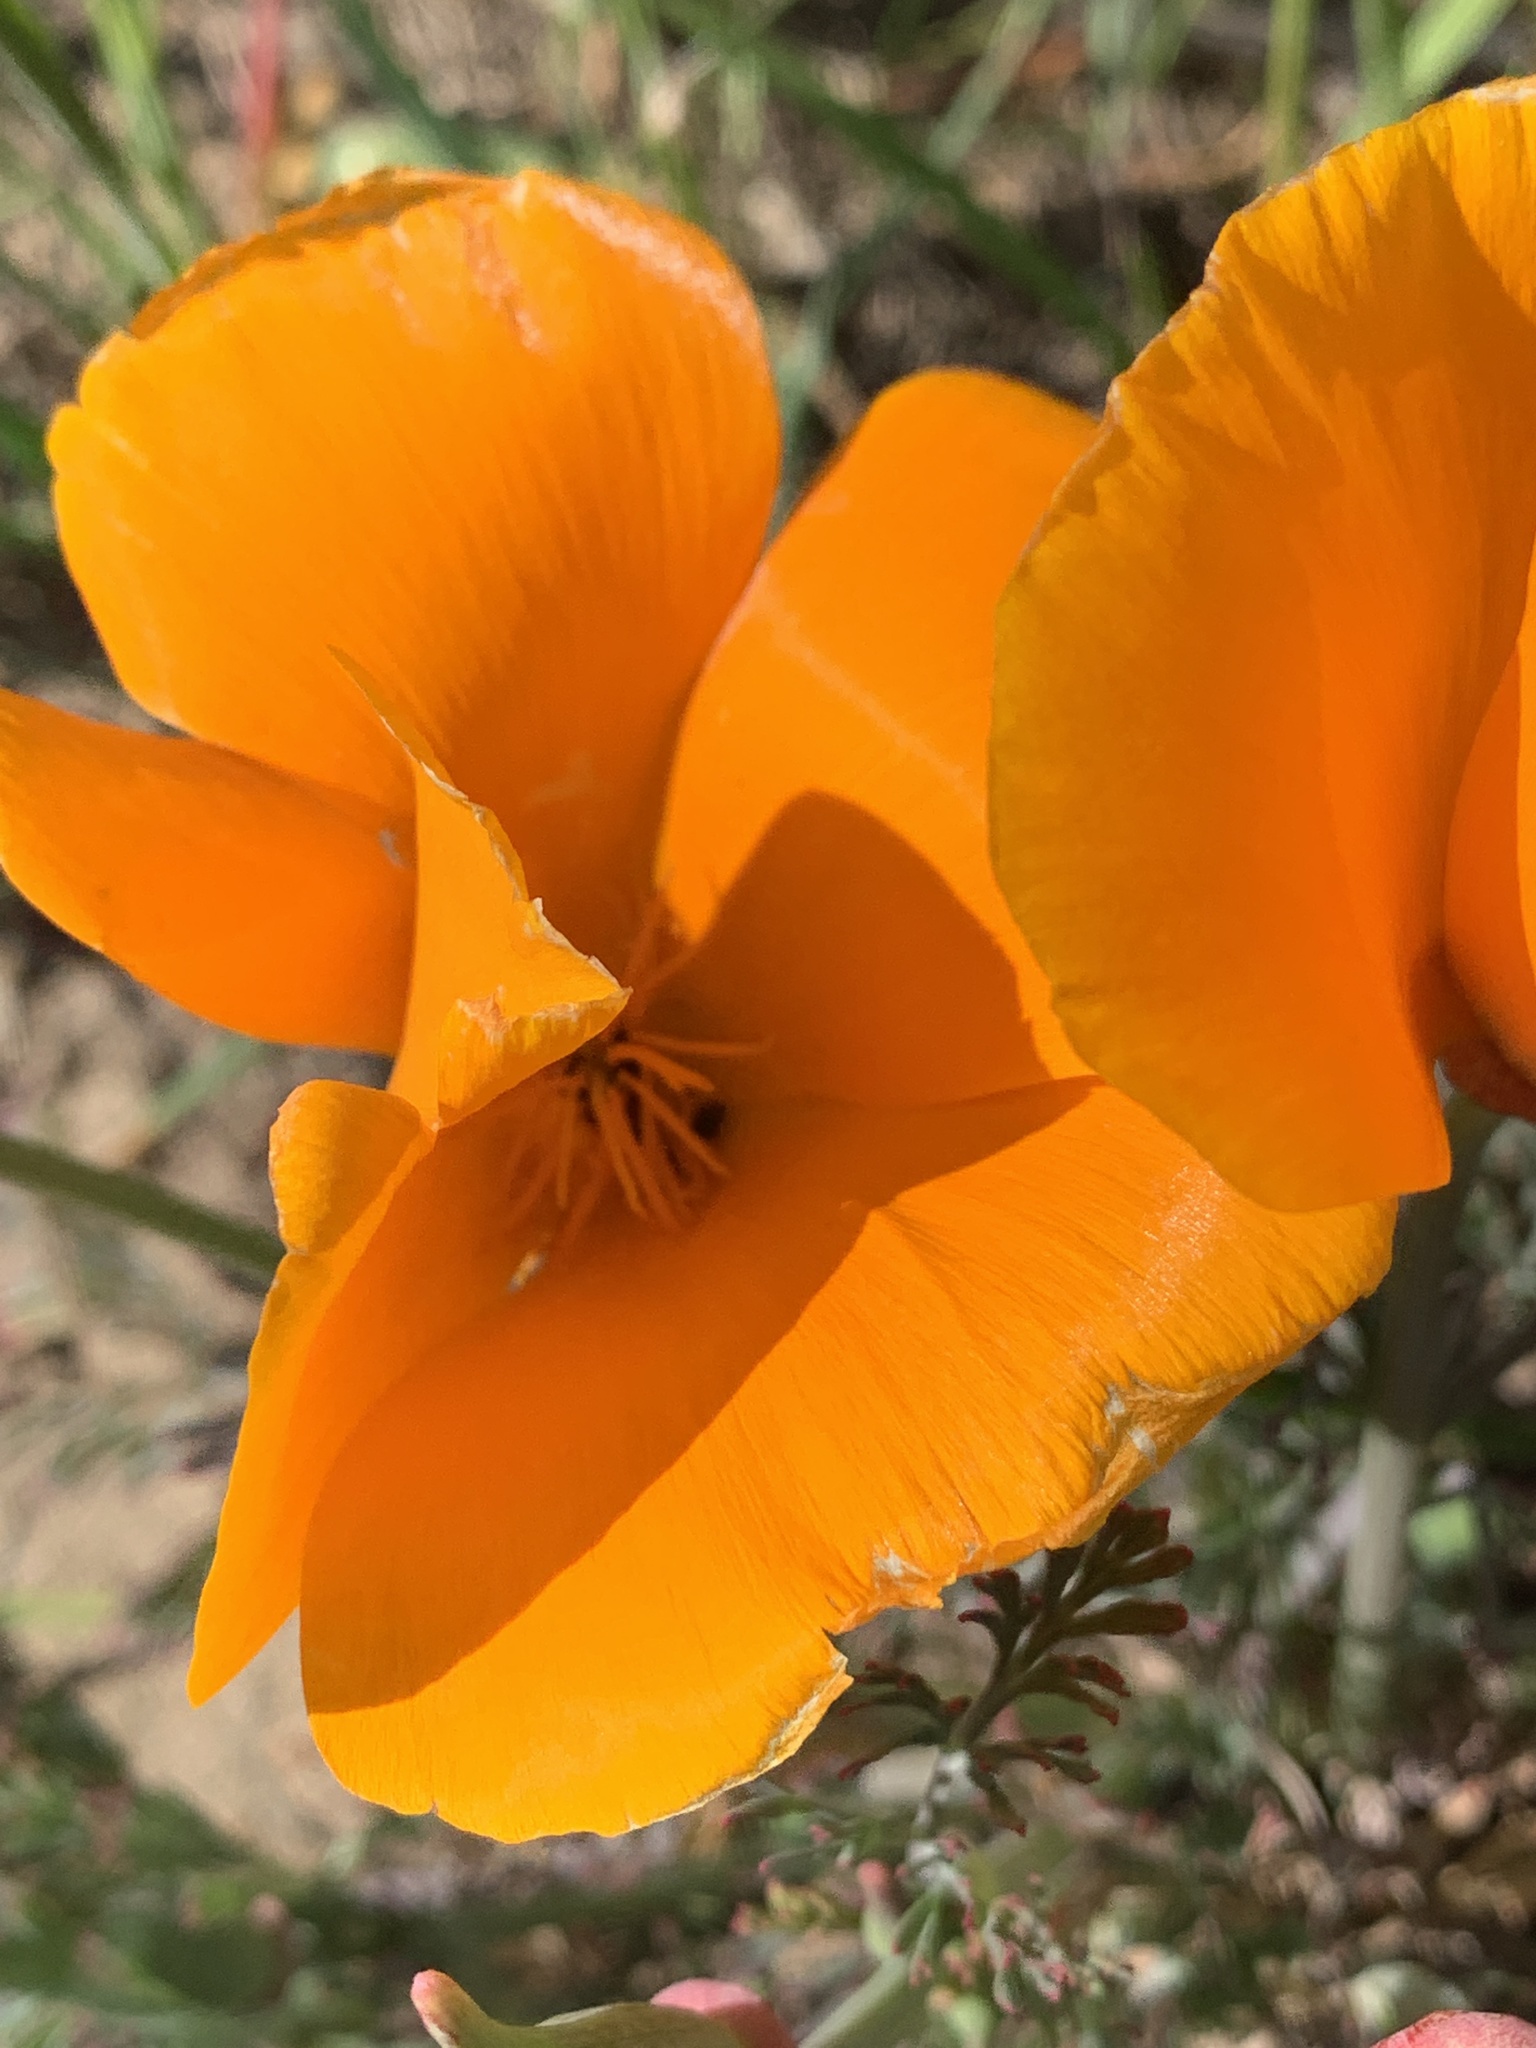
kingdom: Plantae
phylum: Tracheophyta
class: Magnoliopsida
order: Ranunculales
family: Papaveraceae
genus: Eschscholzia
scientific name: Eschscholzia californica
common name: California poppy
